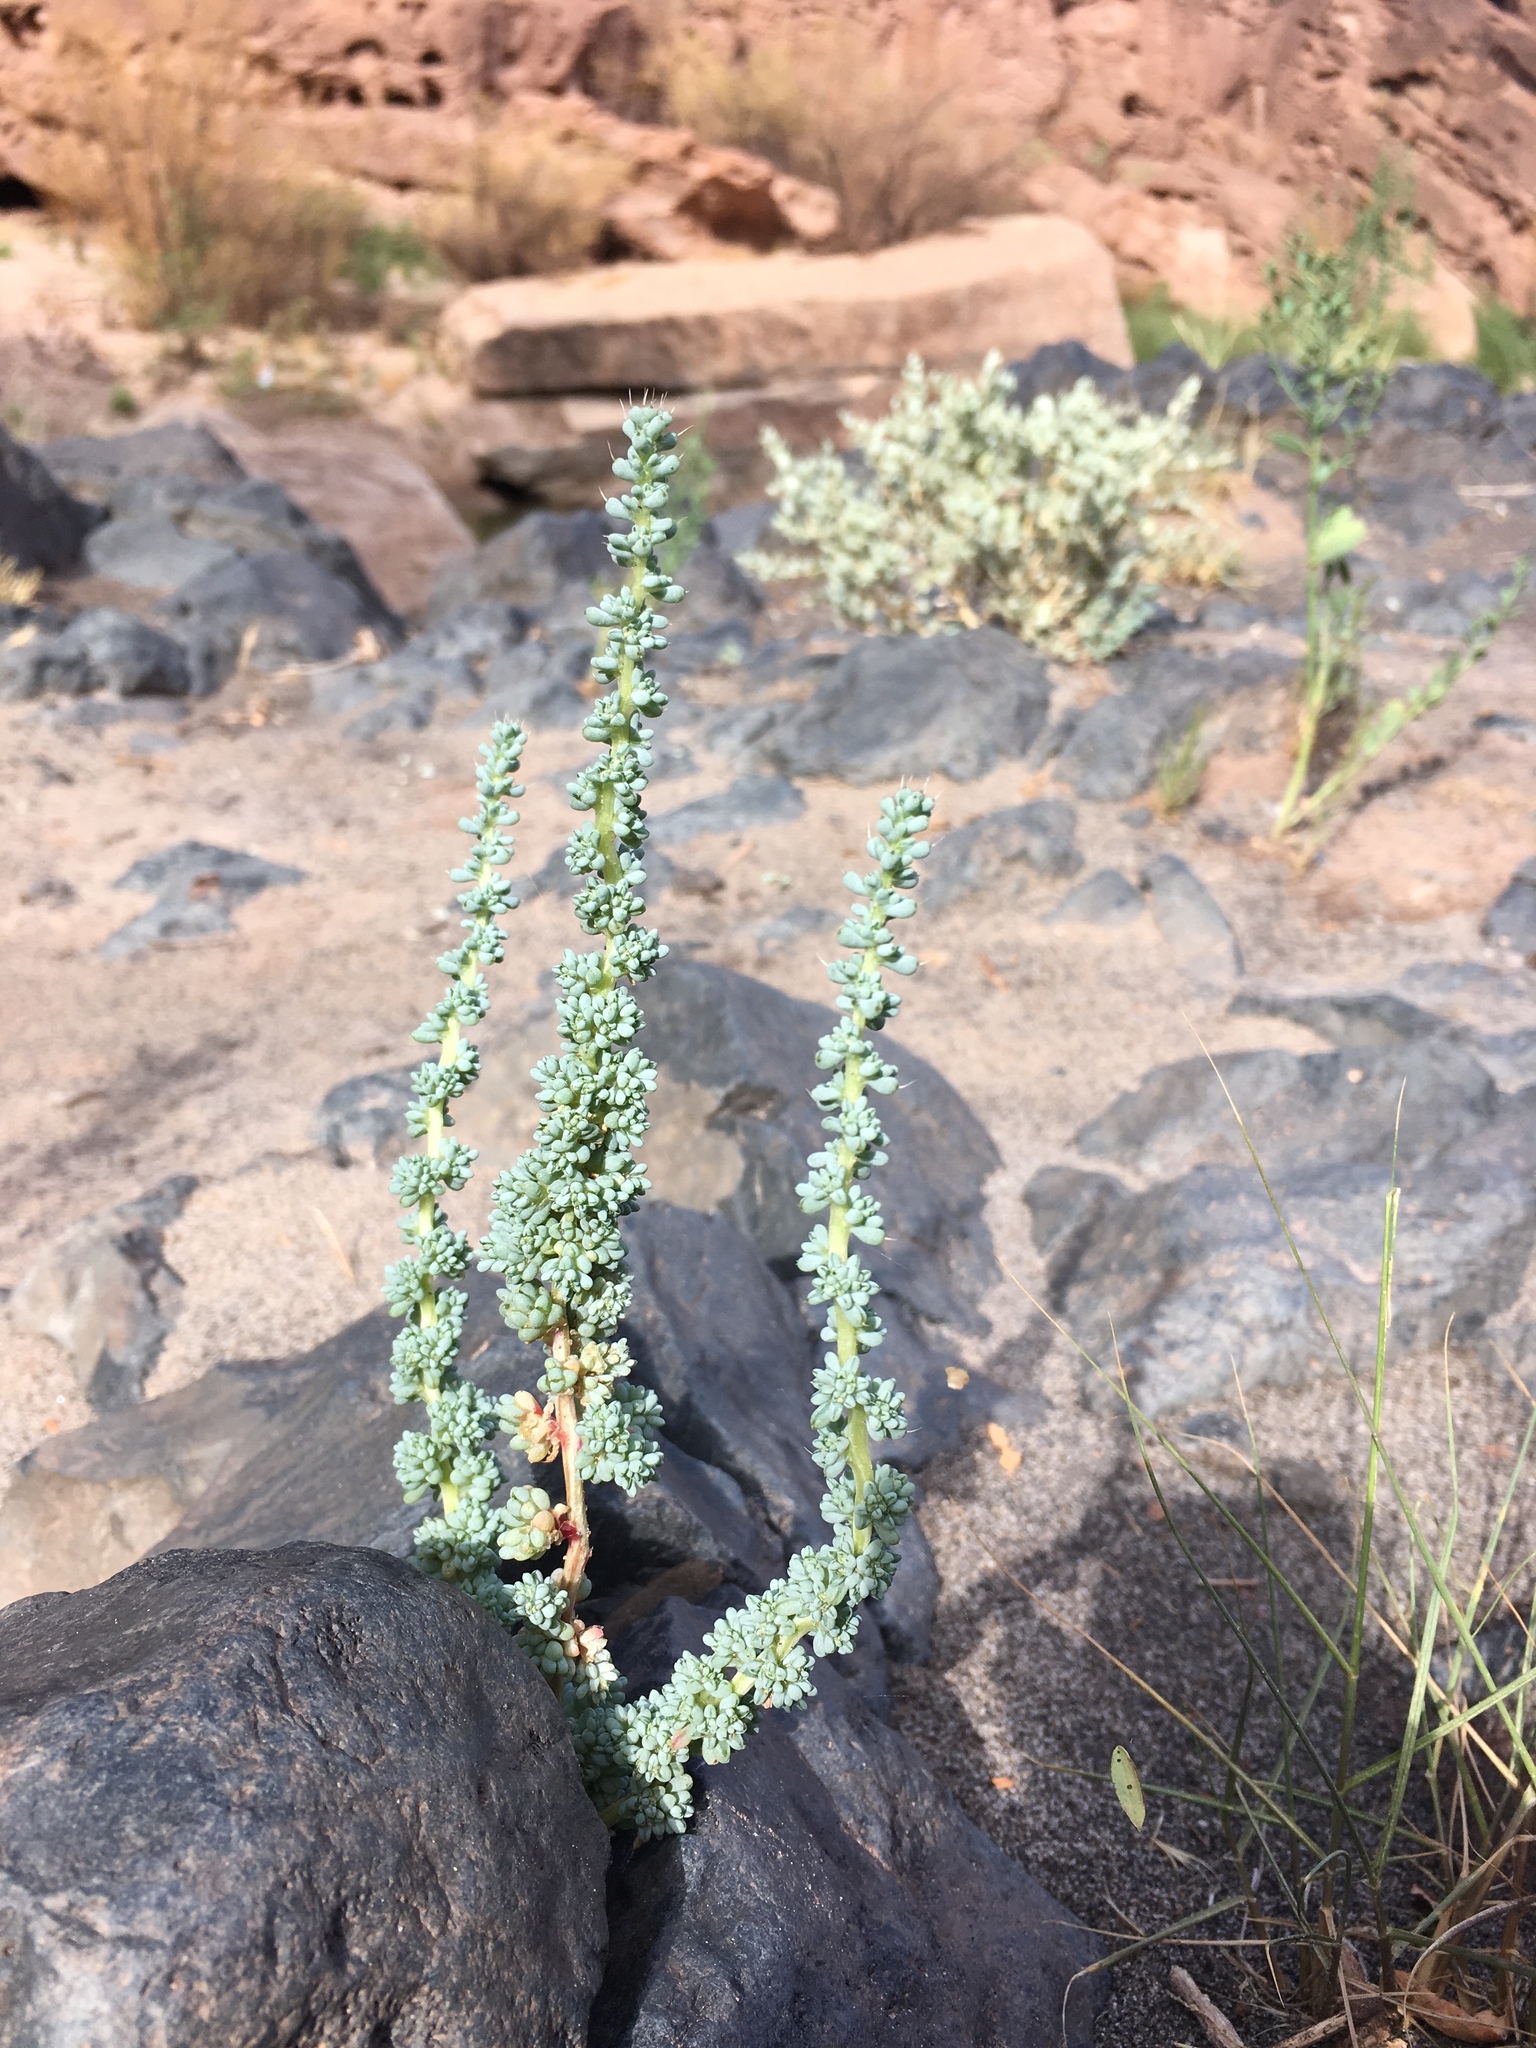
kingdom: Plantae
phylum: Tracheophyta
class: Magnoliopsida
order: Caryophyllales
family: Amaranthaceae
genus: Halogeton
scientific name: Halogeton glomeratus
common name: Saltlover
